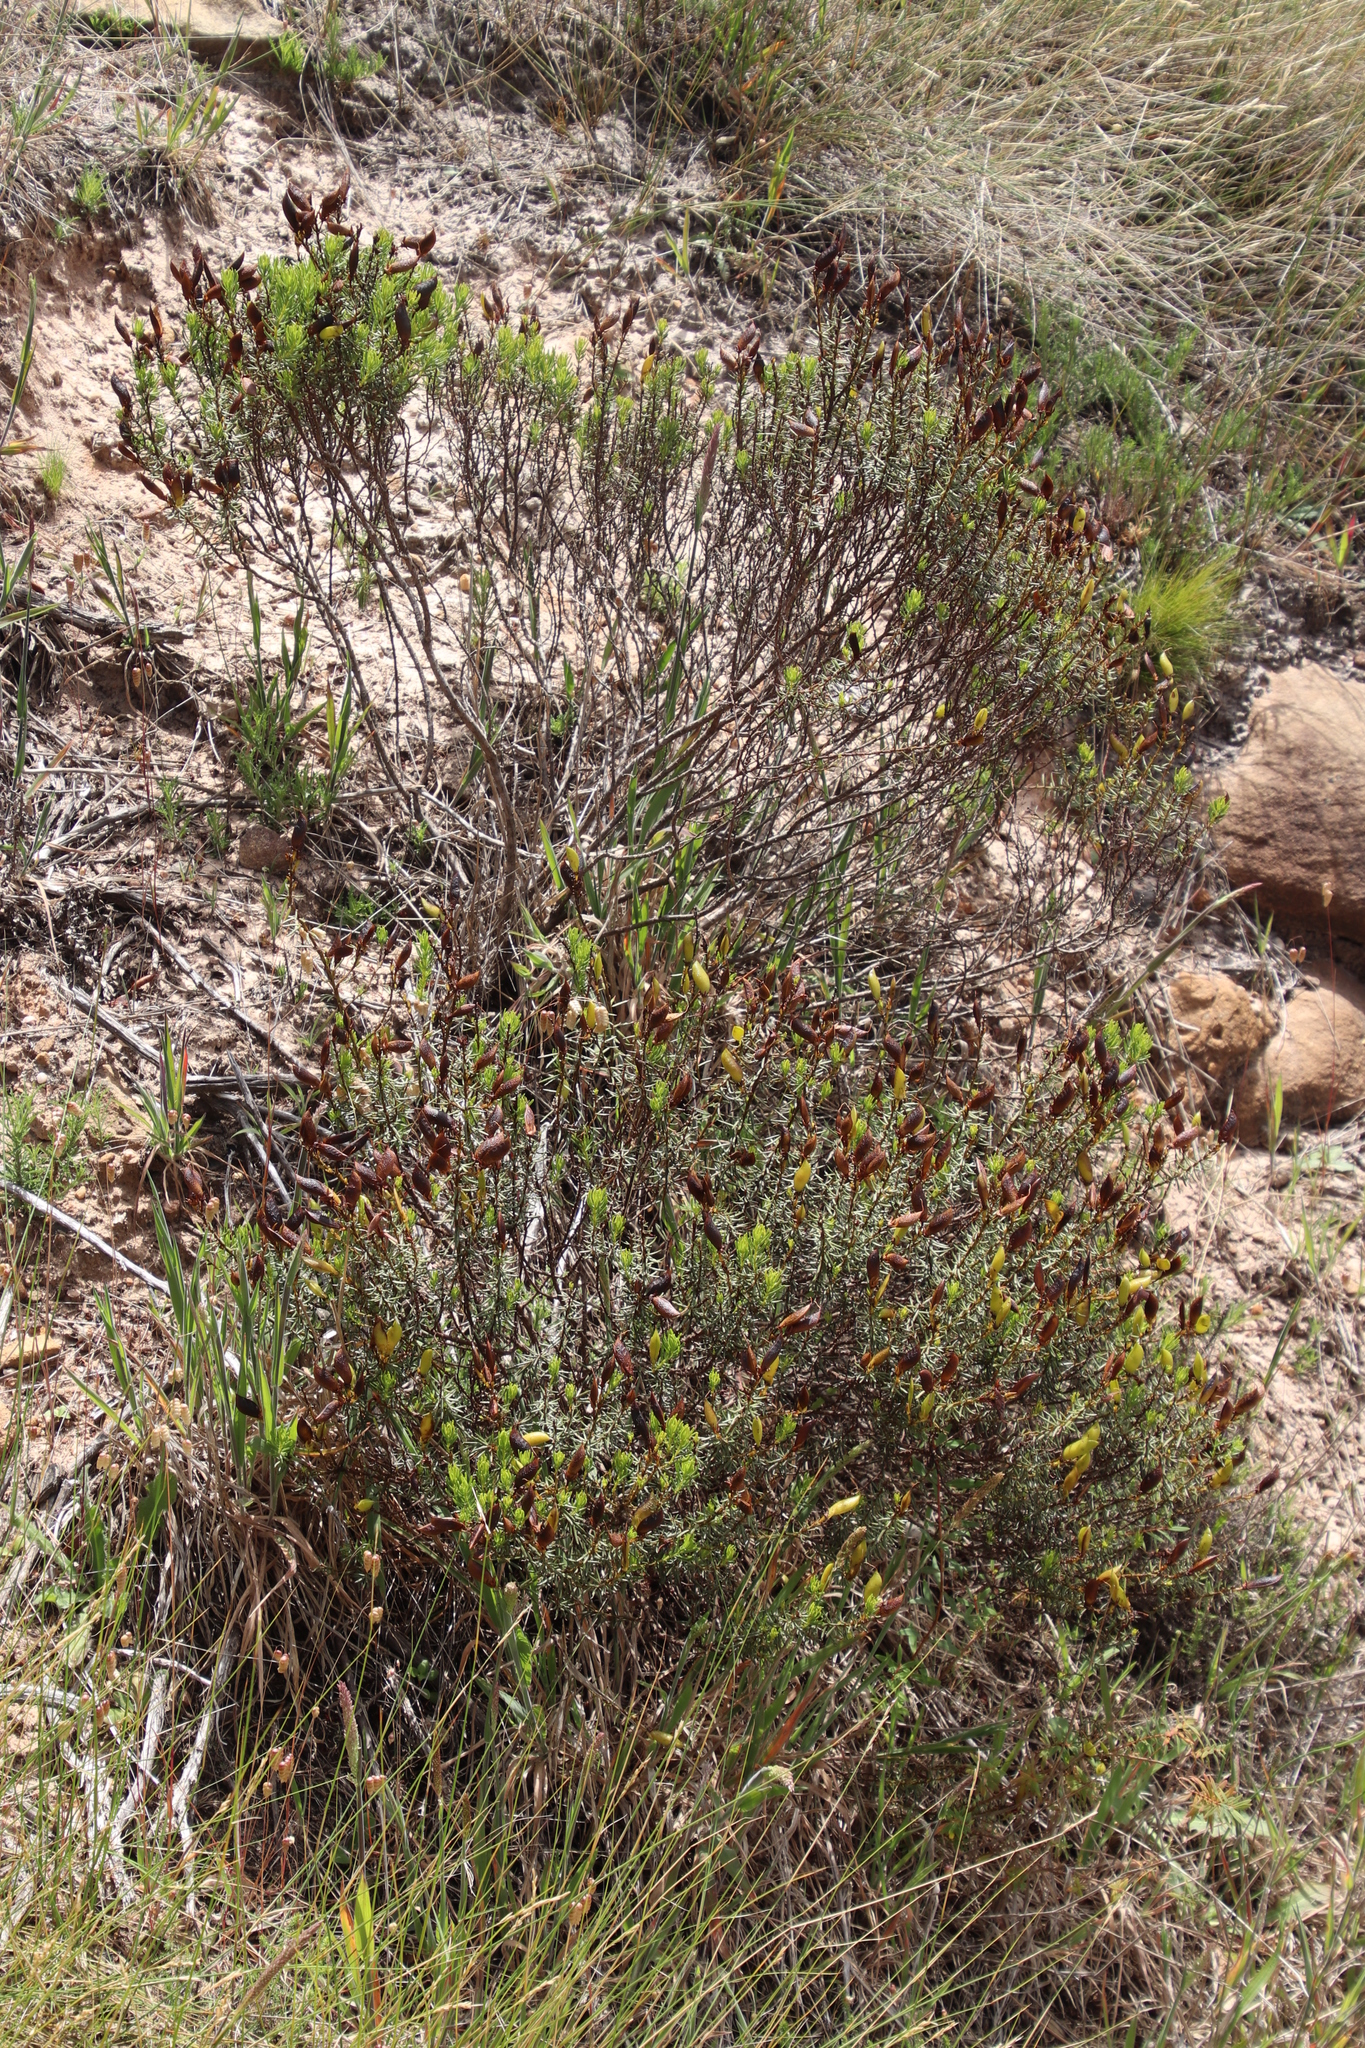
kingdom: Plantae
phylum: Tracheophyta
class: Magnoliopsida
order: Fabales
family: Fabaceae
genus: Cyclopia
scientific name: Cyclopia genistoides
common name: Honeybush tea
